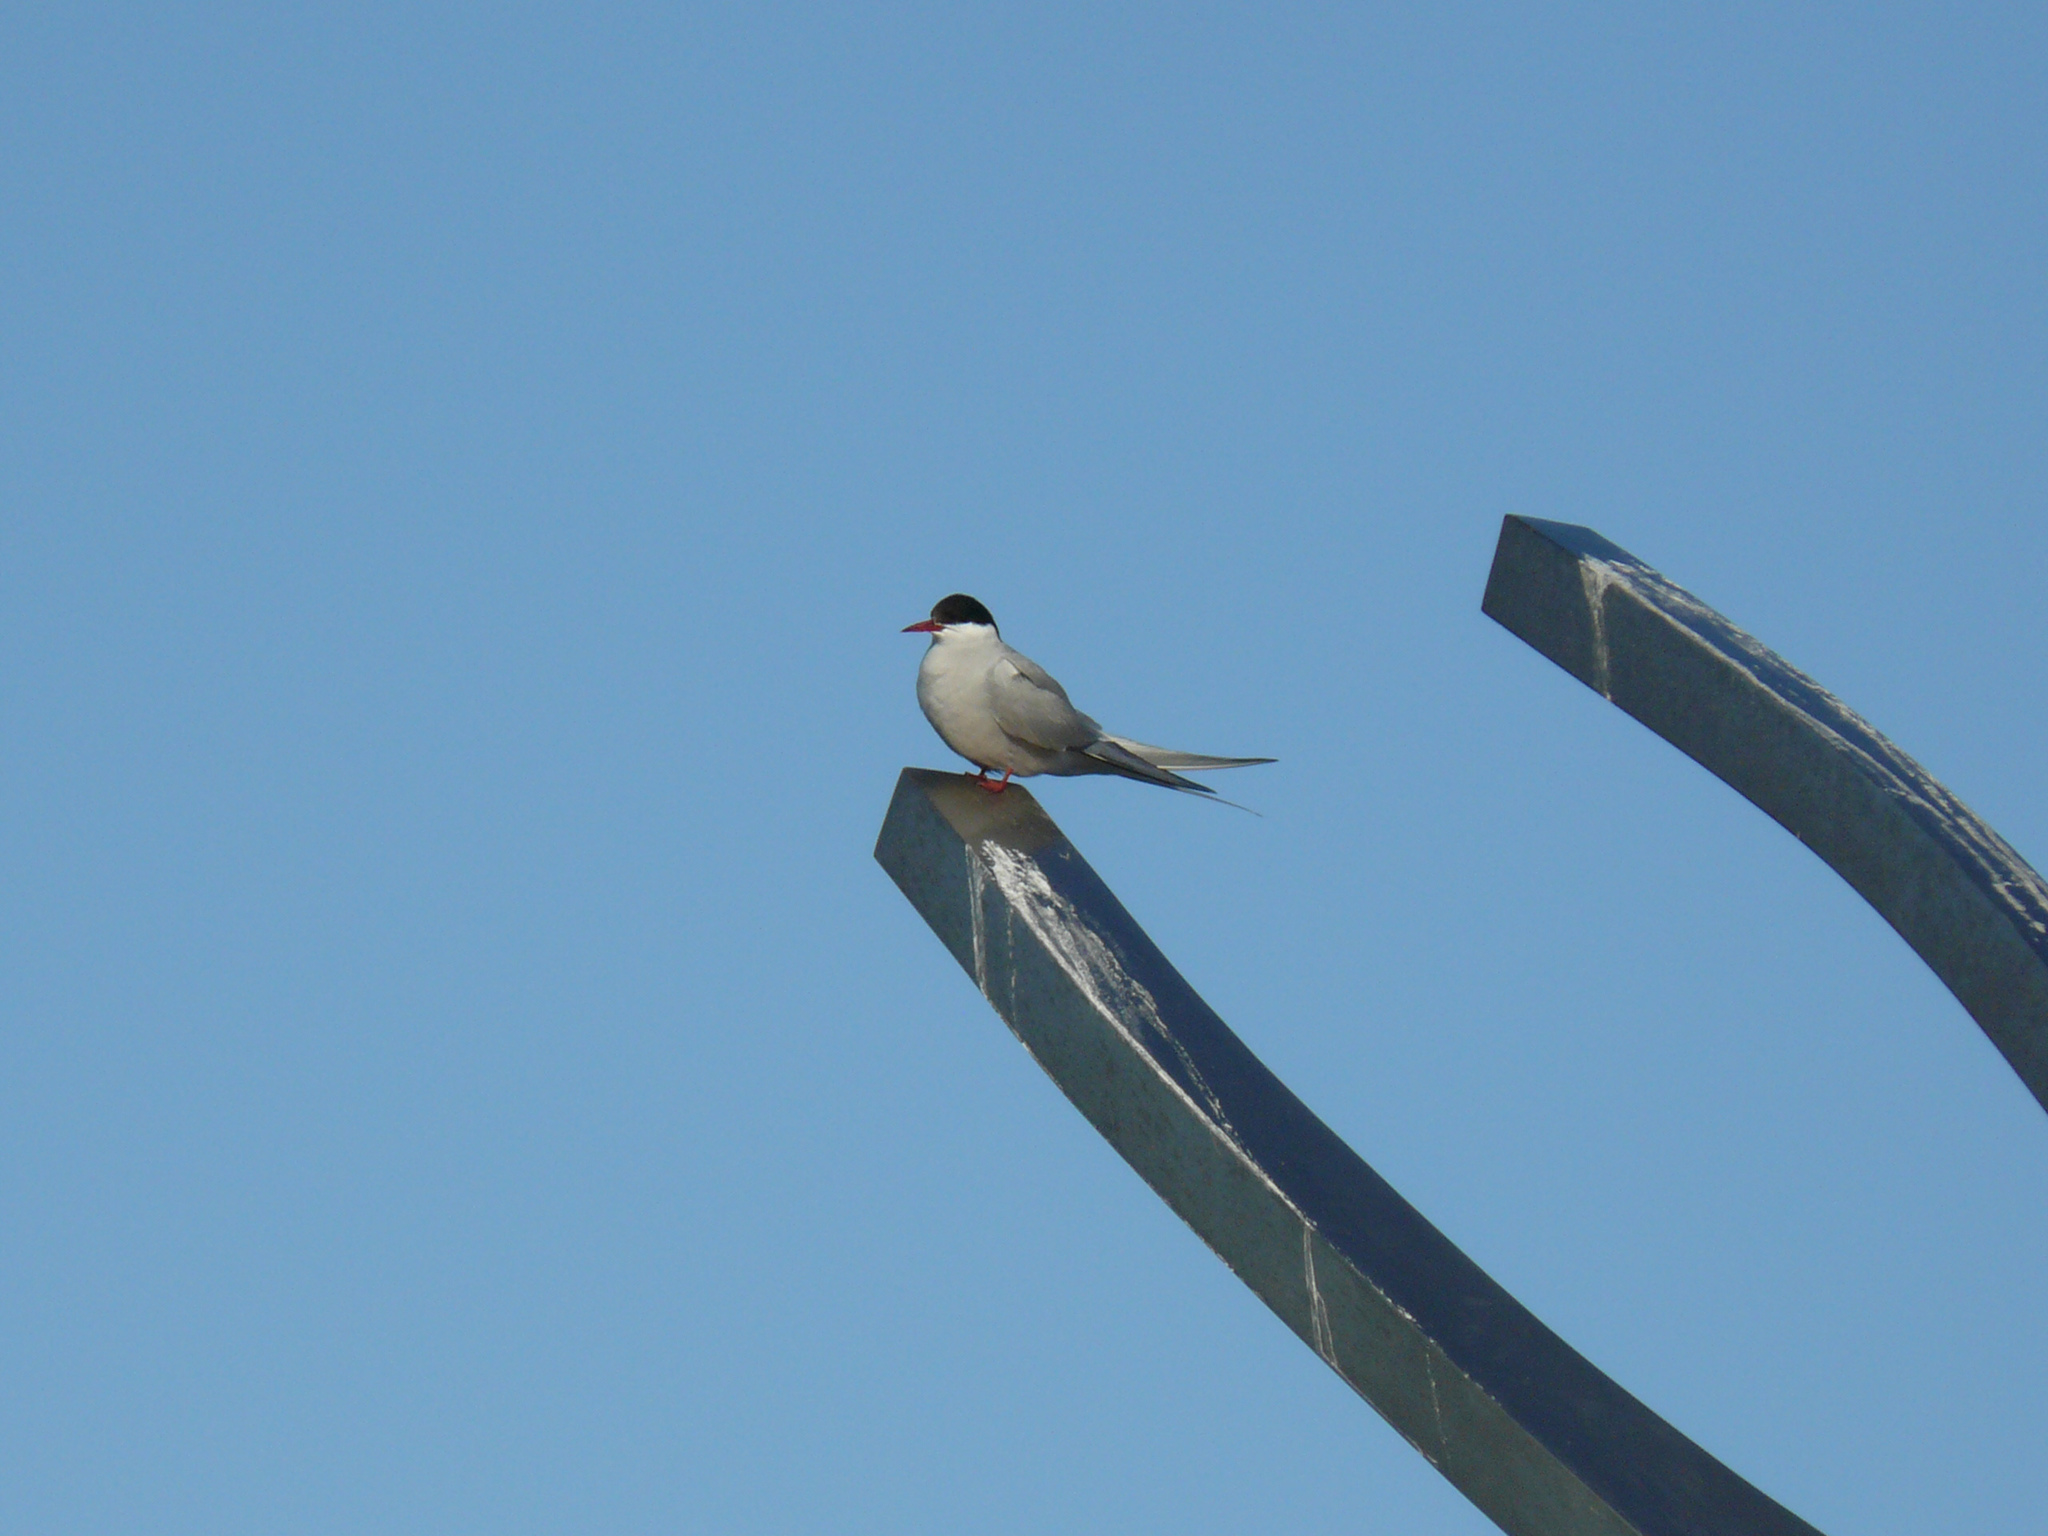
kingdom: Animalia
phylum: Chordata
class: Aves
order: Charadriiformes
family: Laridae
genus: Sterna
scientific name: Sterna paradisaea
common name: Arctic tern
